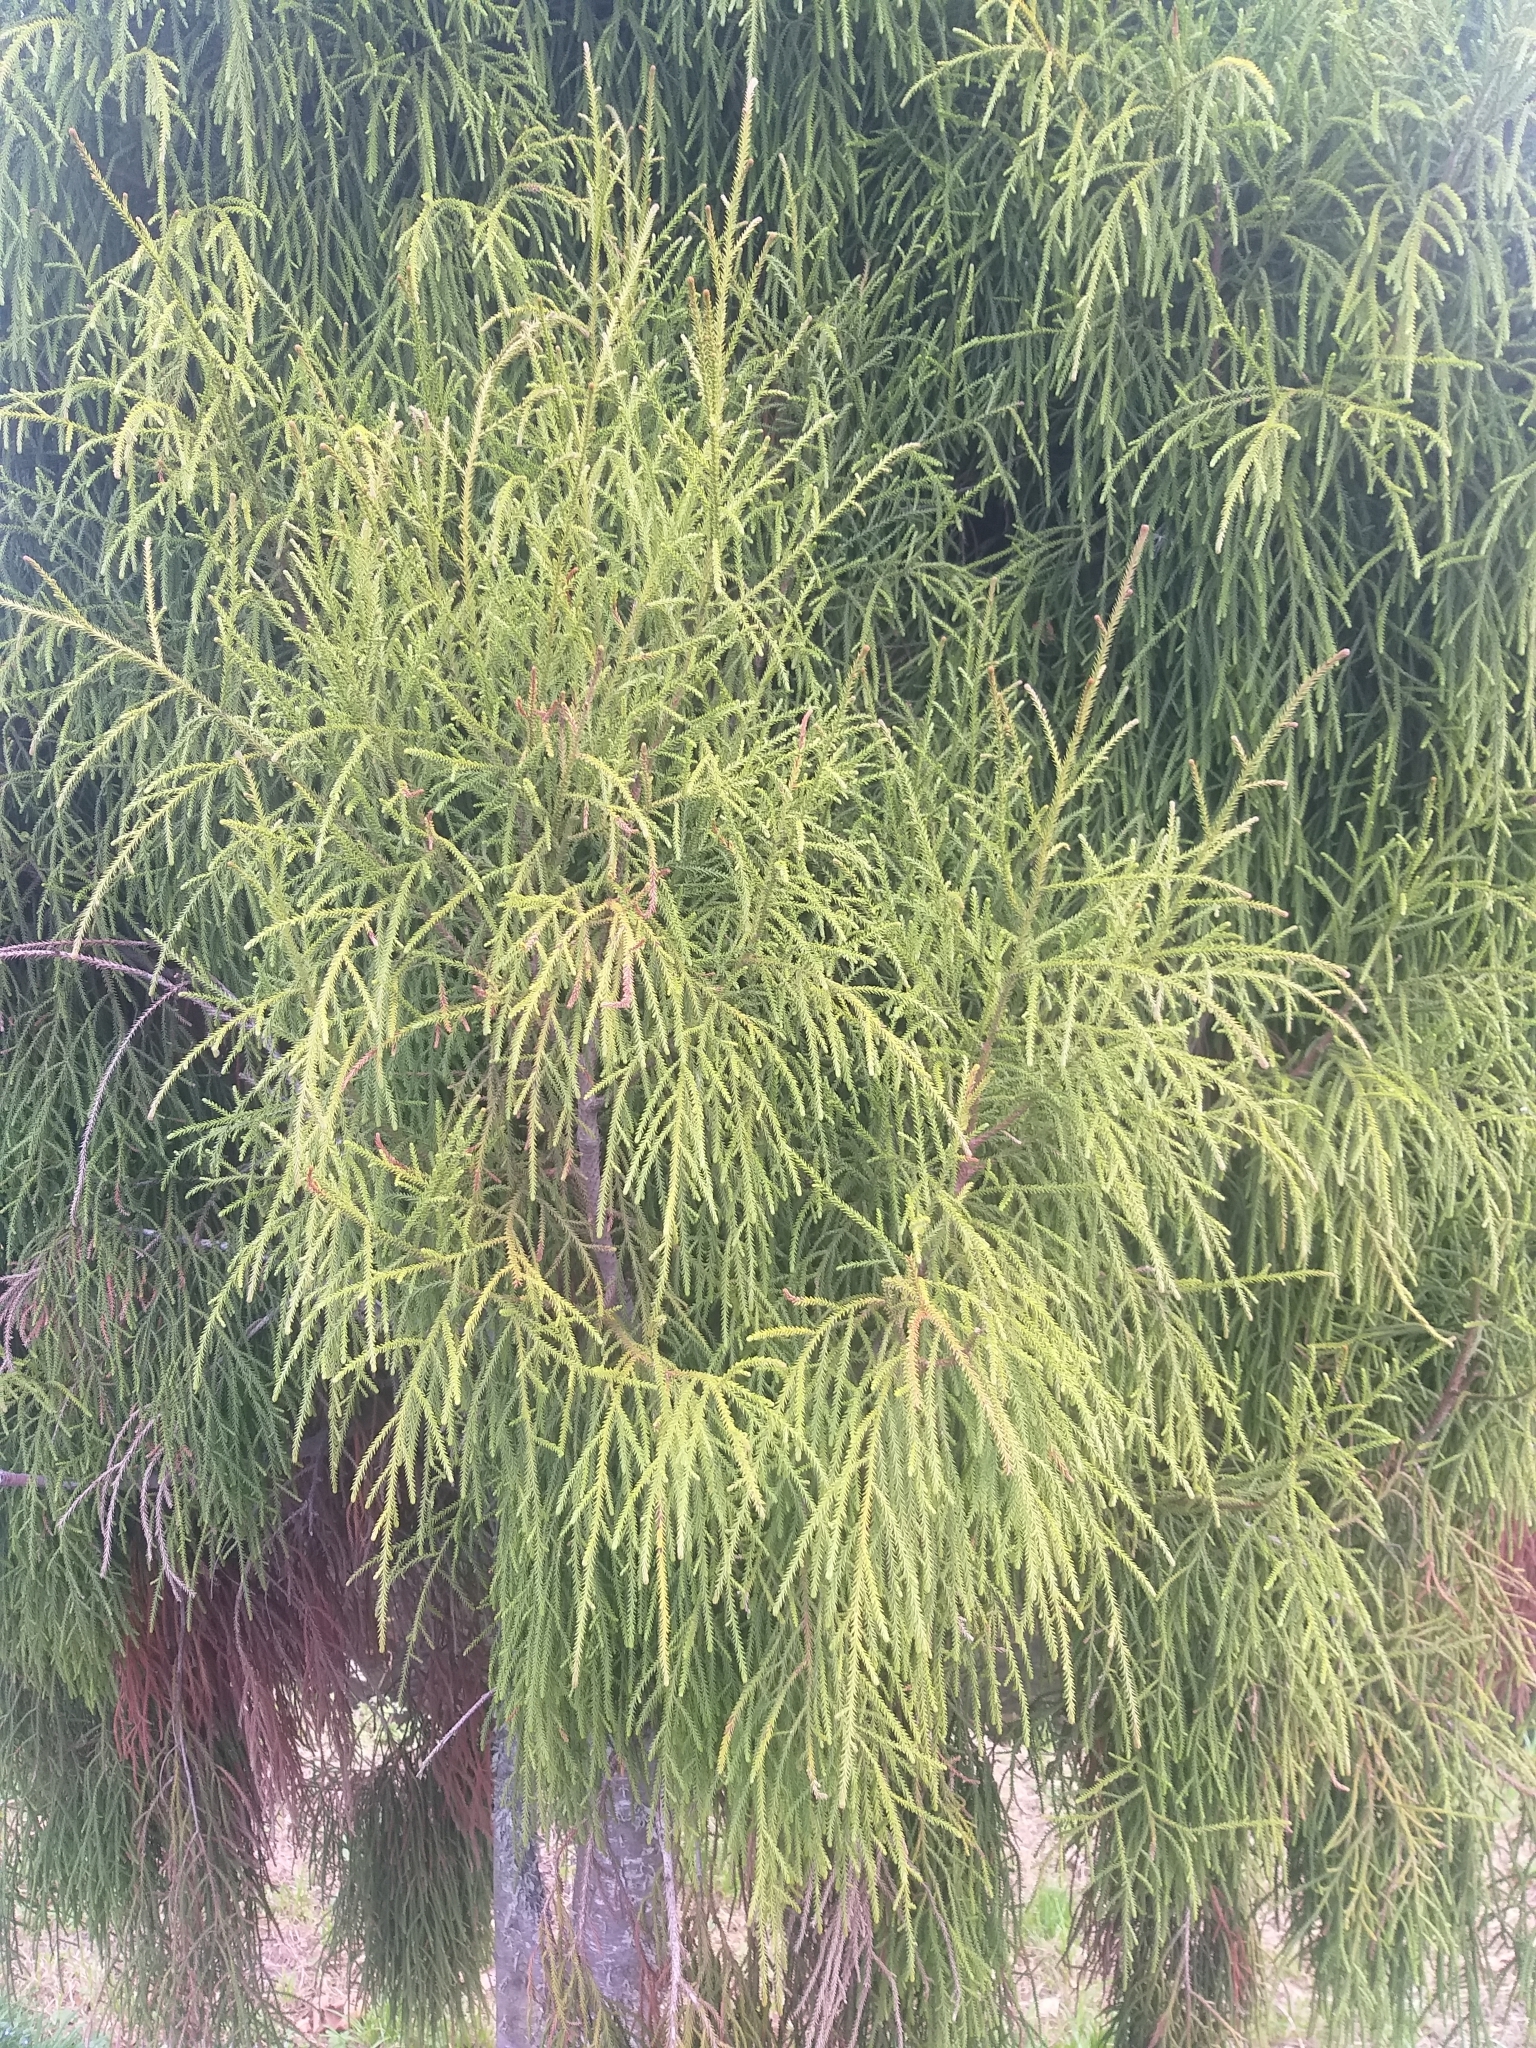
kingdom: Plantae
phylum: Tracheophyta
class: Pinopsida
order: Pinales
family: Podocarpaceae
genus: Dacrydium
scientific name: Dacrydium cupressinum
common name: Red pine
